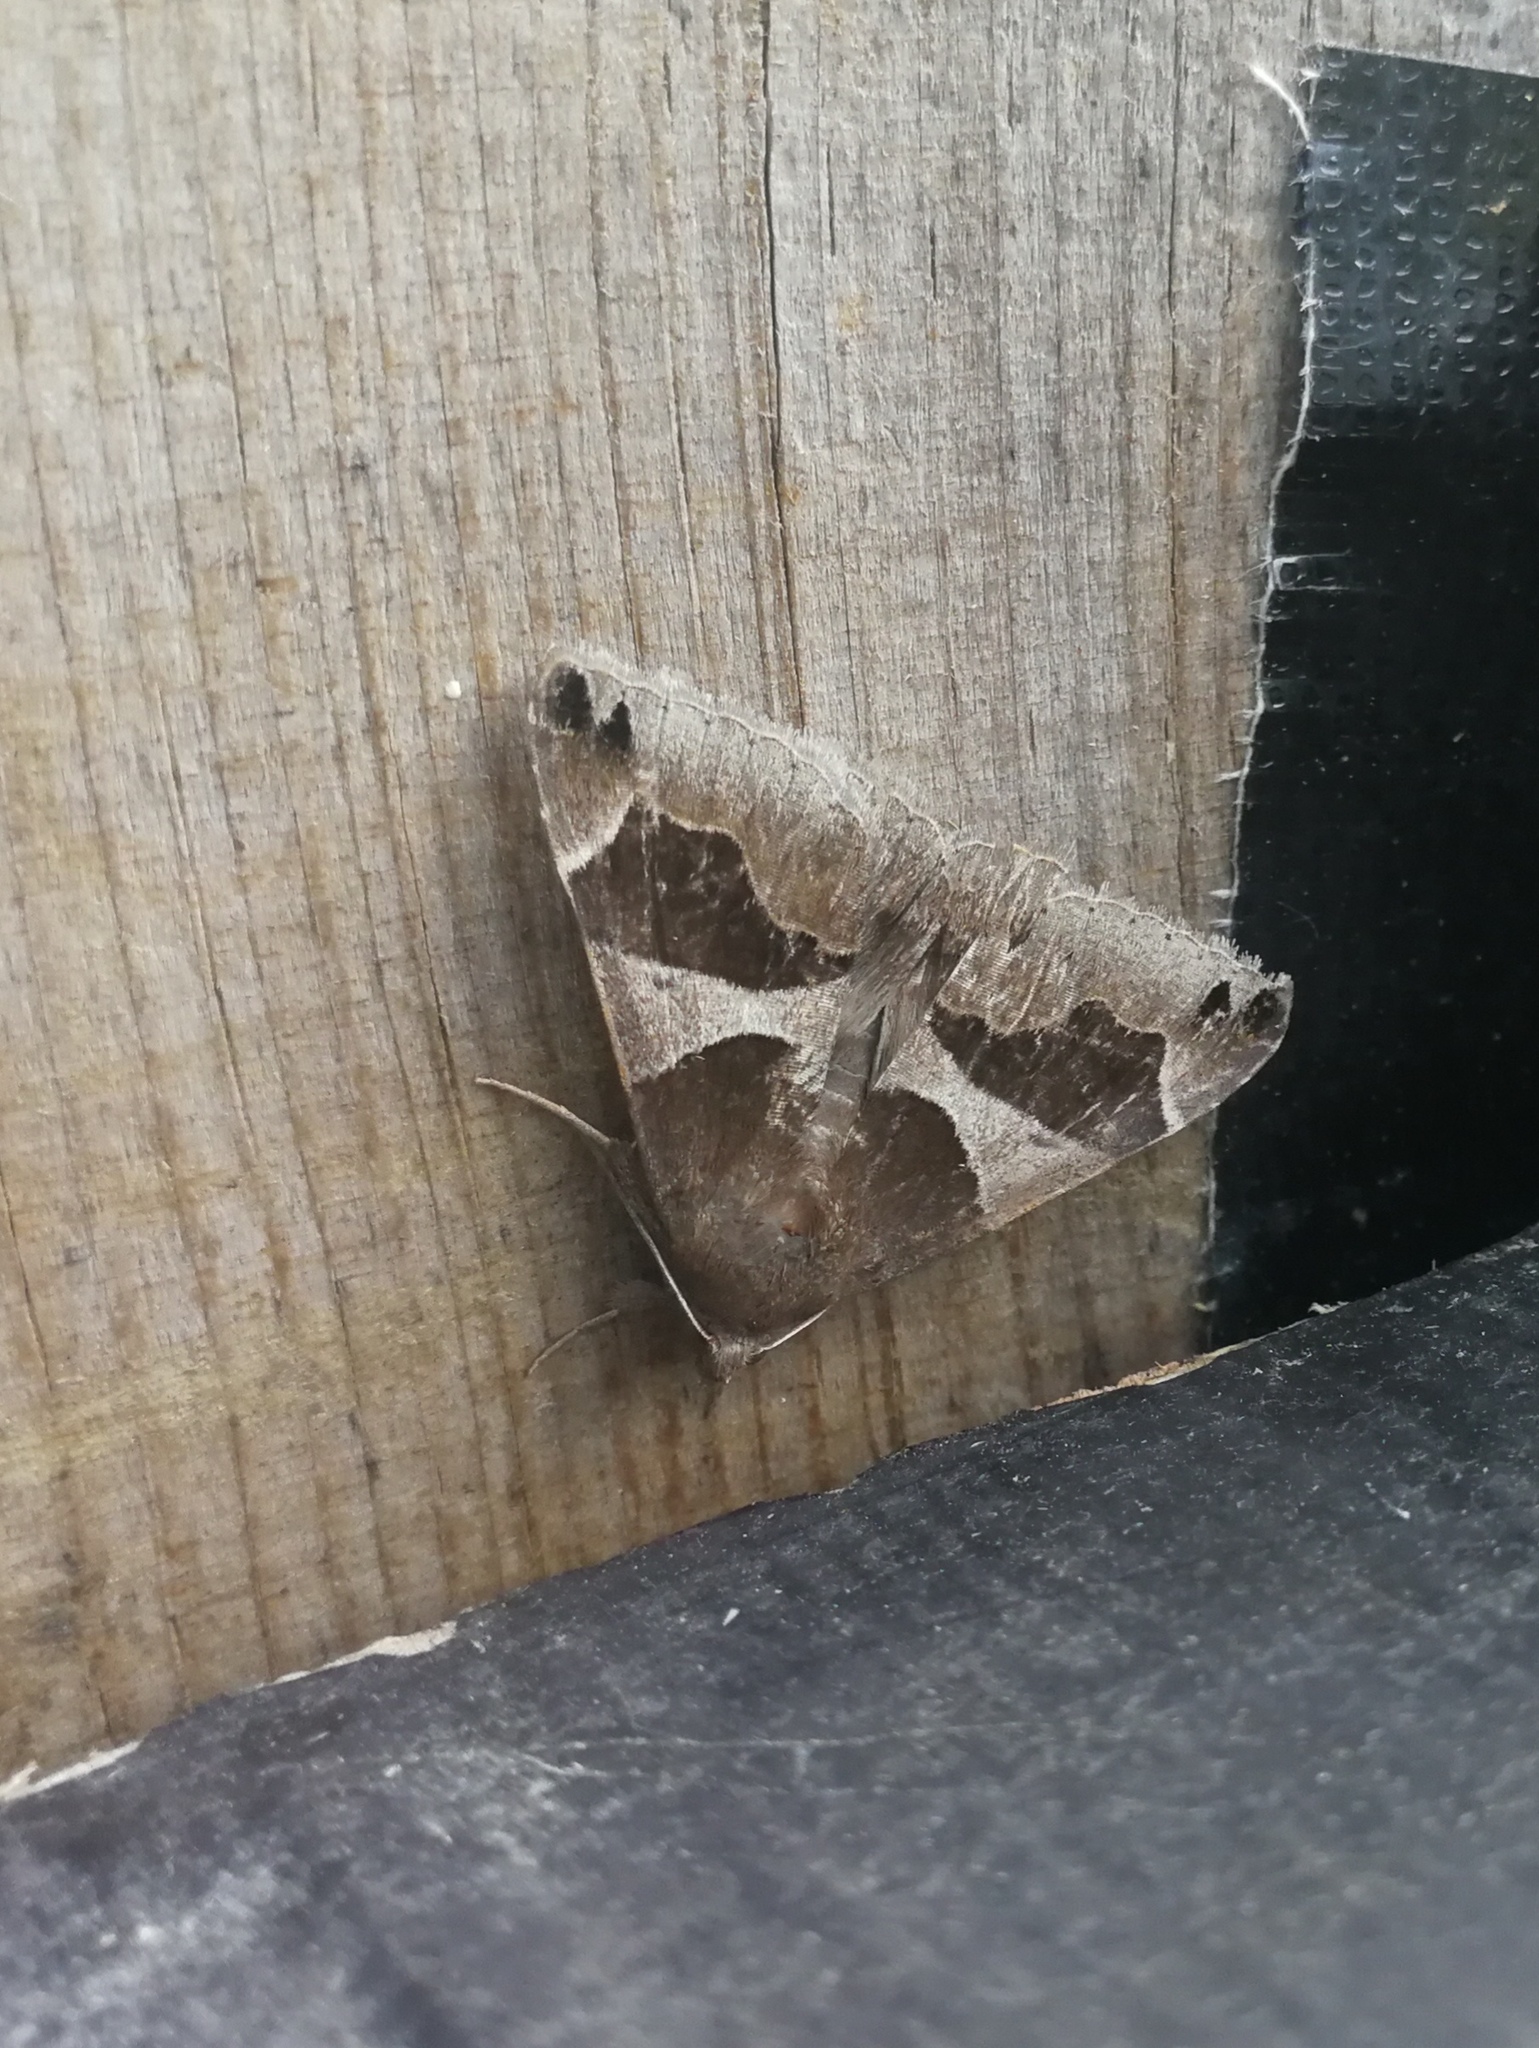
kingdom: Animalia
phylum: Arthropoda
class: Insecta
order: Lepidoptera
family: Erebidae
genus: Dysgonia
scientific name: Dysgonia algira
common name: Passenger
